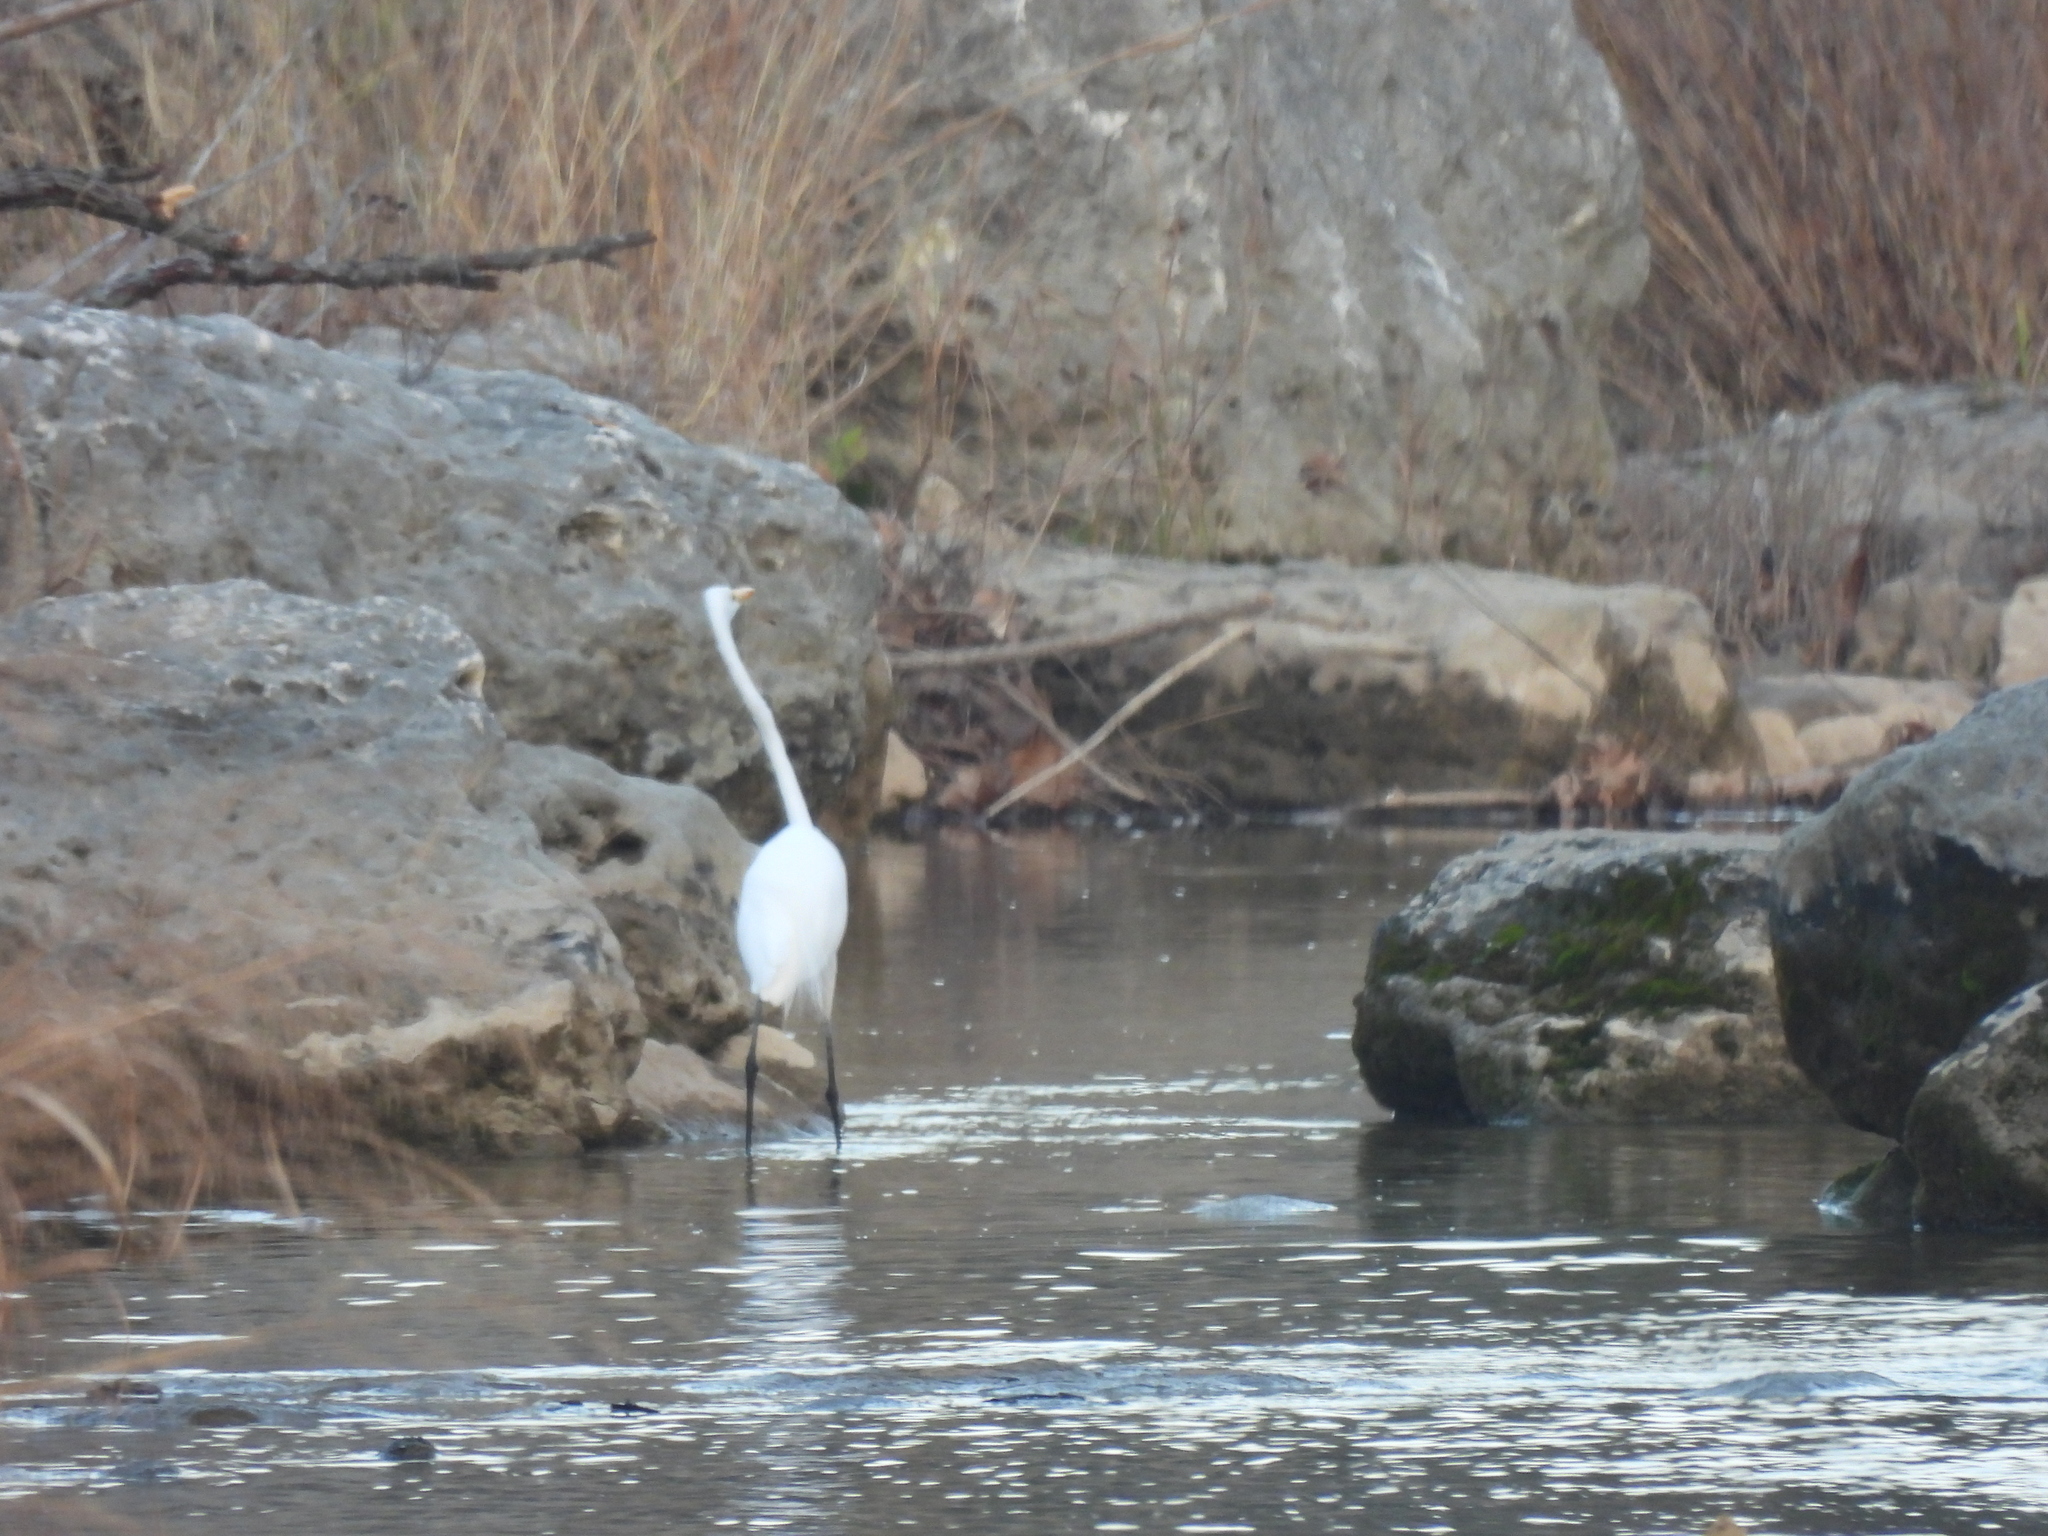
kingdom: Animalia
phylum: Chordata
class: Aves
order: Pelecaniformes
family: Ardeidae
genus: Ardea
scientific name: Ardea alba
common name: Great egret
